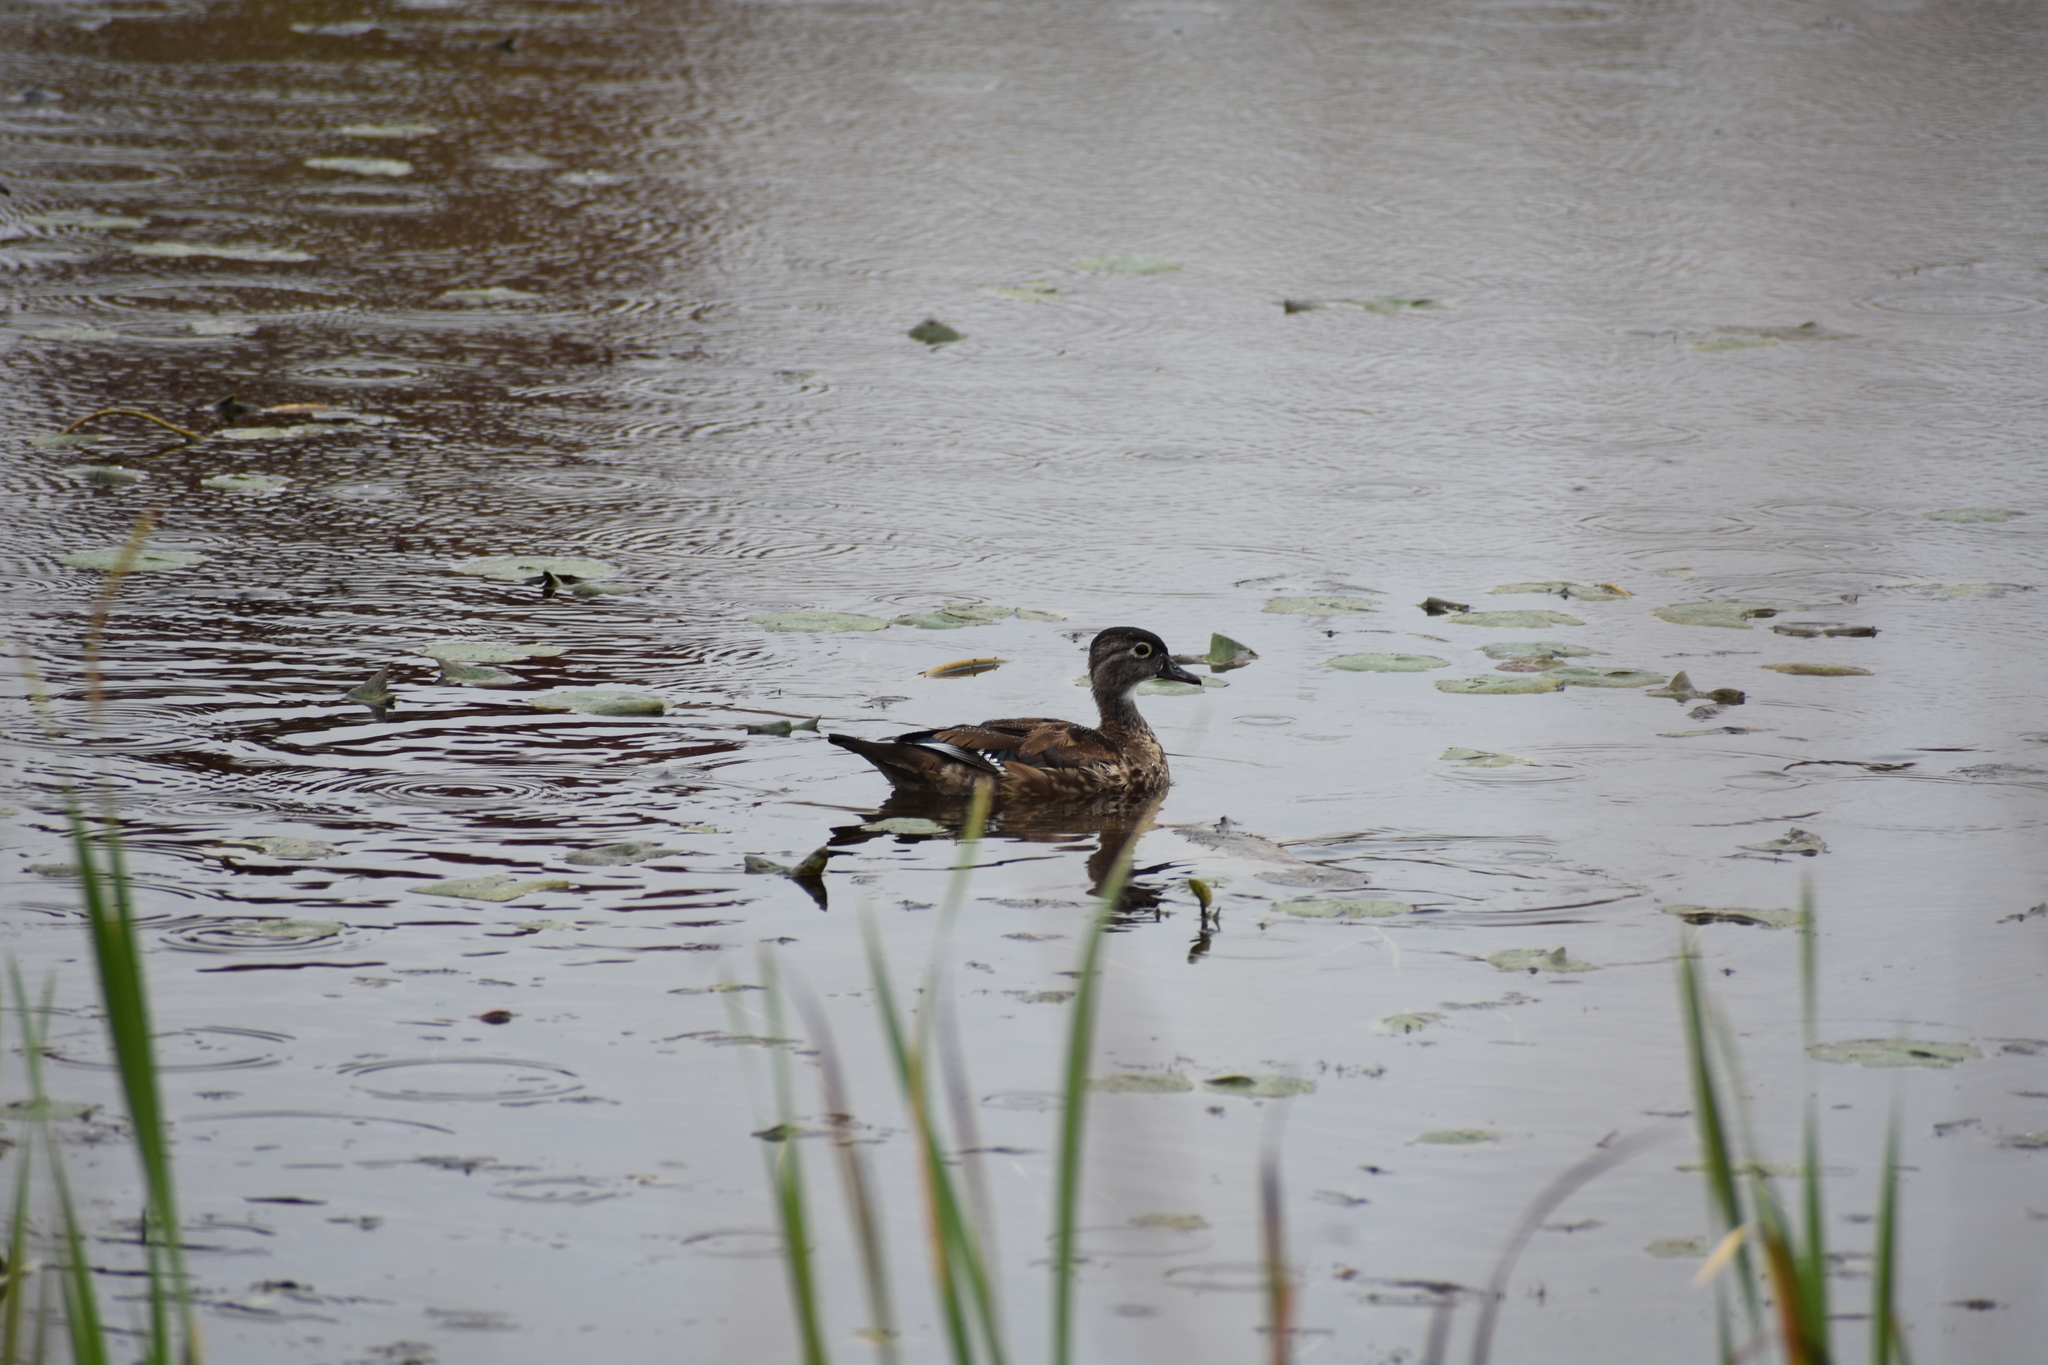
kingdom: Animalia
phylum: Chordata
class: Aves
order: Anseriformes
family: Anatidae
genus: Aix
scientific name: Aix sponsa
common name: Wood duck
